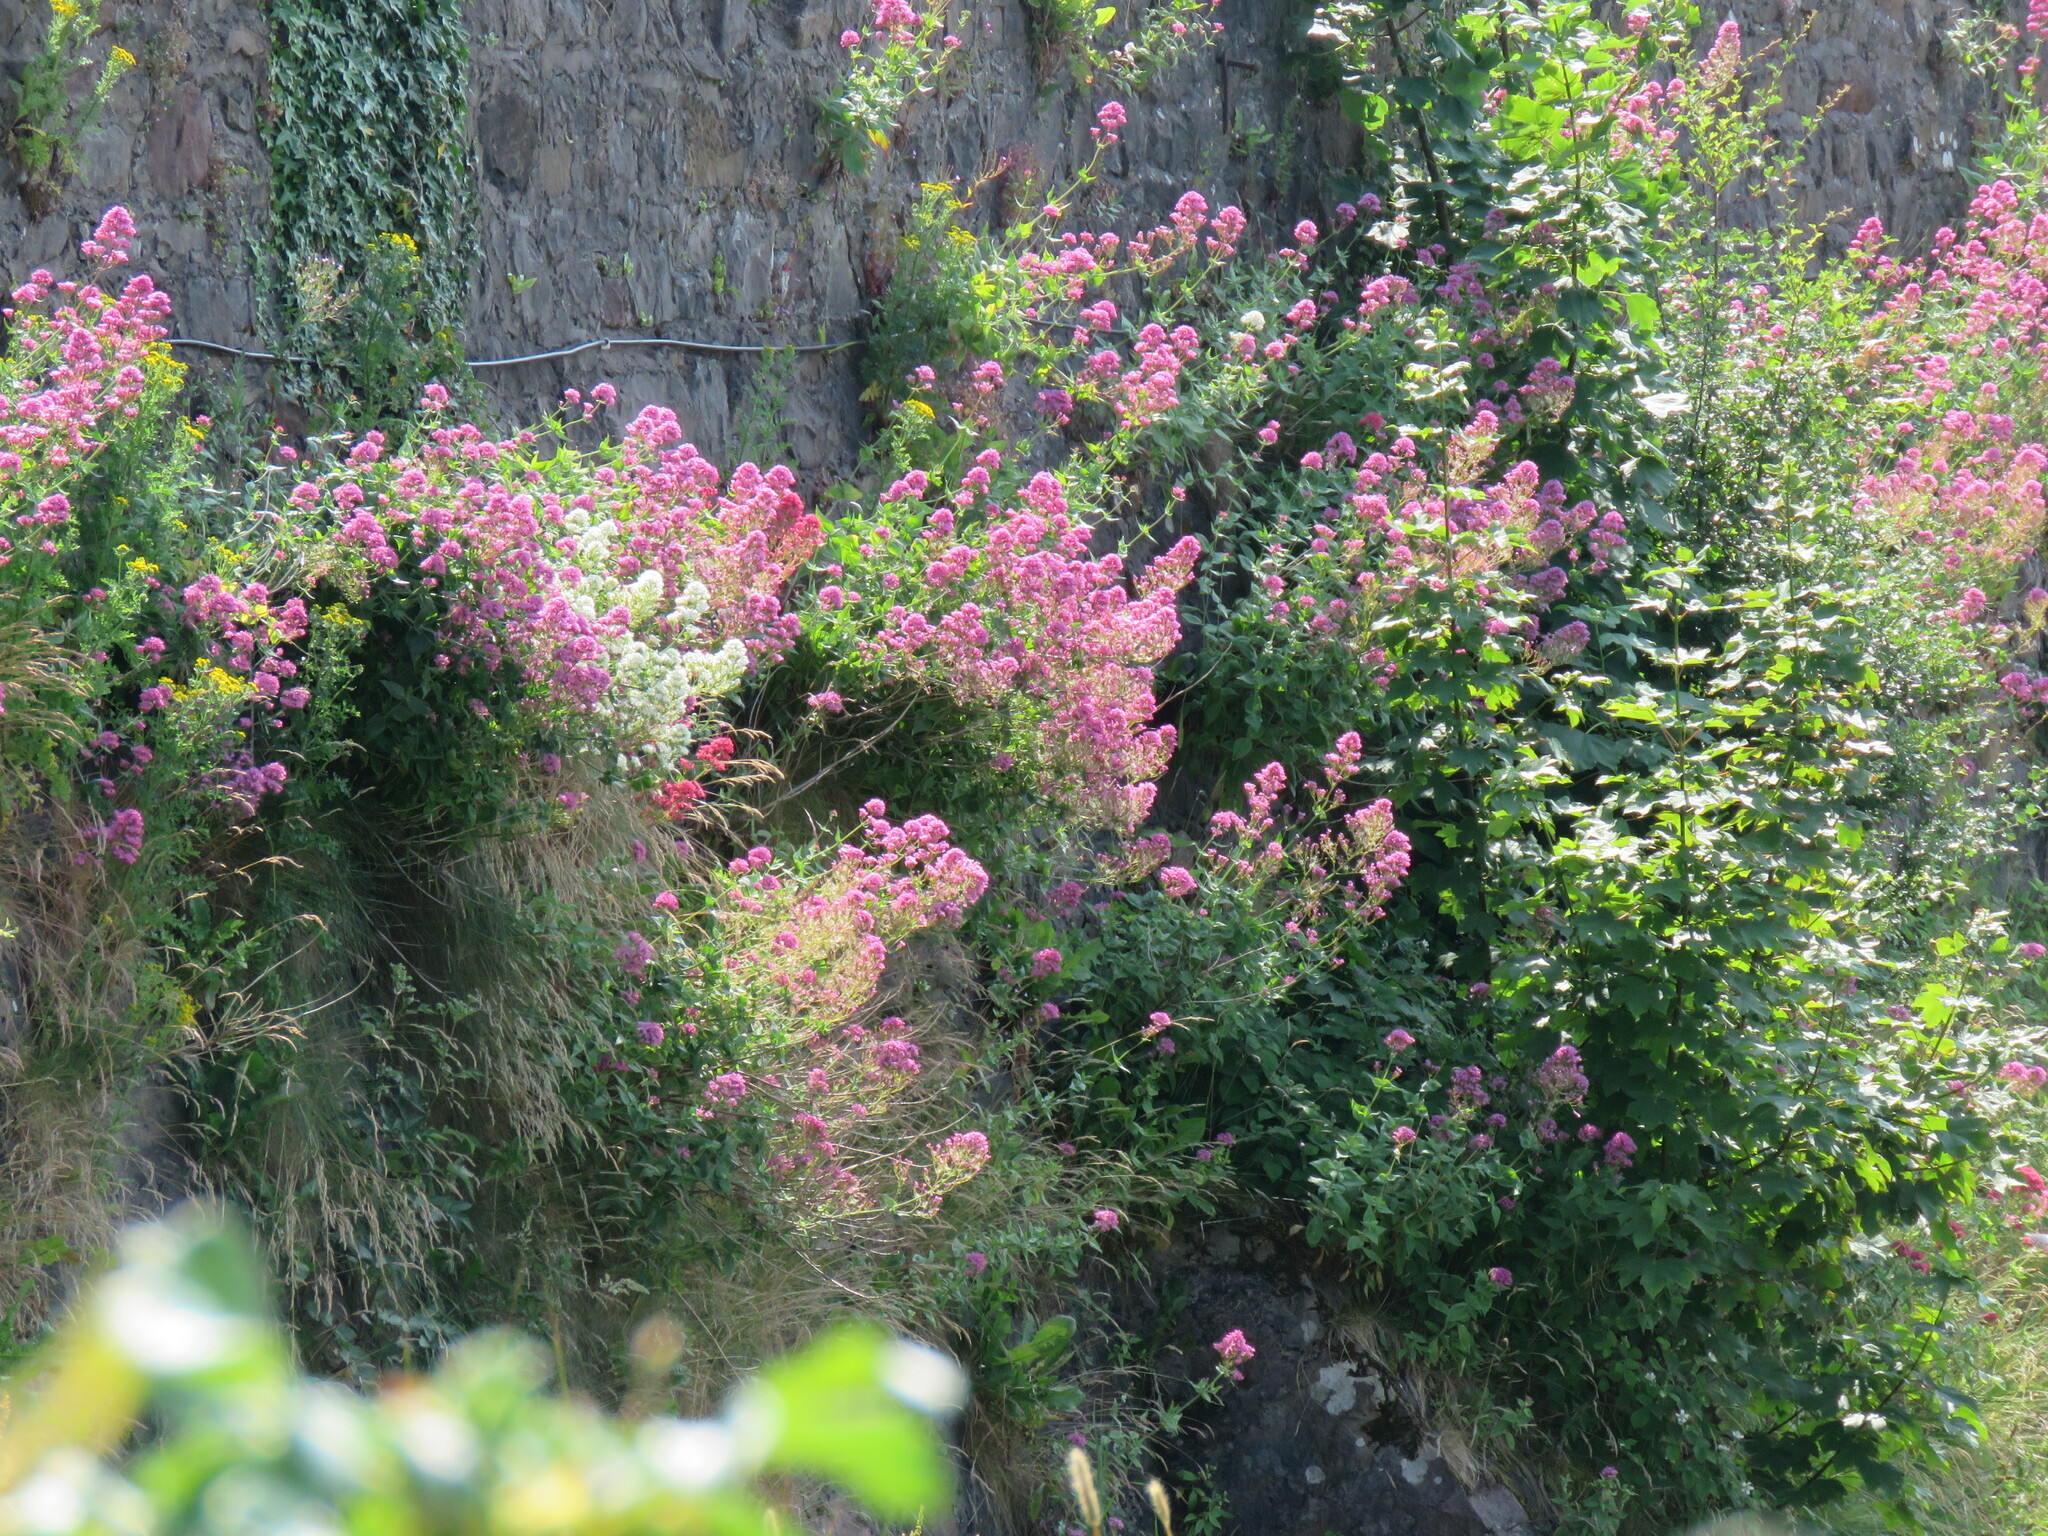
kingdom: Plantae
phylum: Tracheophyta
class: Magnoliopsida
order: Dipsacales
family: Caprifoliaceae
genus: Centranthus
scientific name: Centranthus ruber
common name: Red valerian
